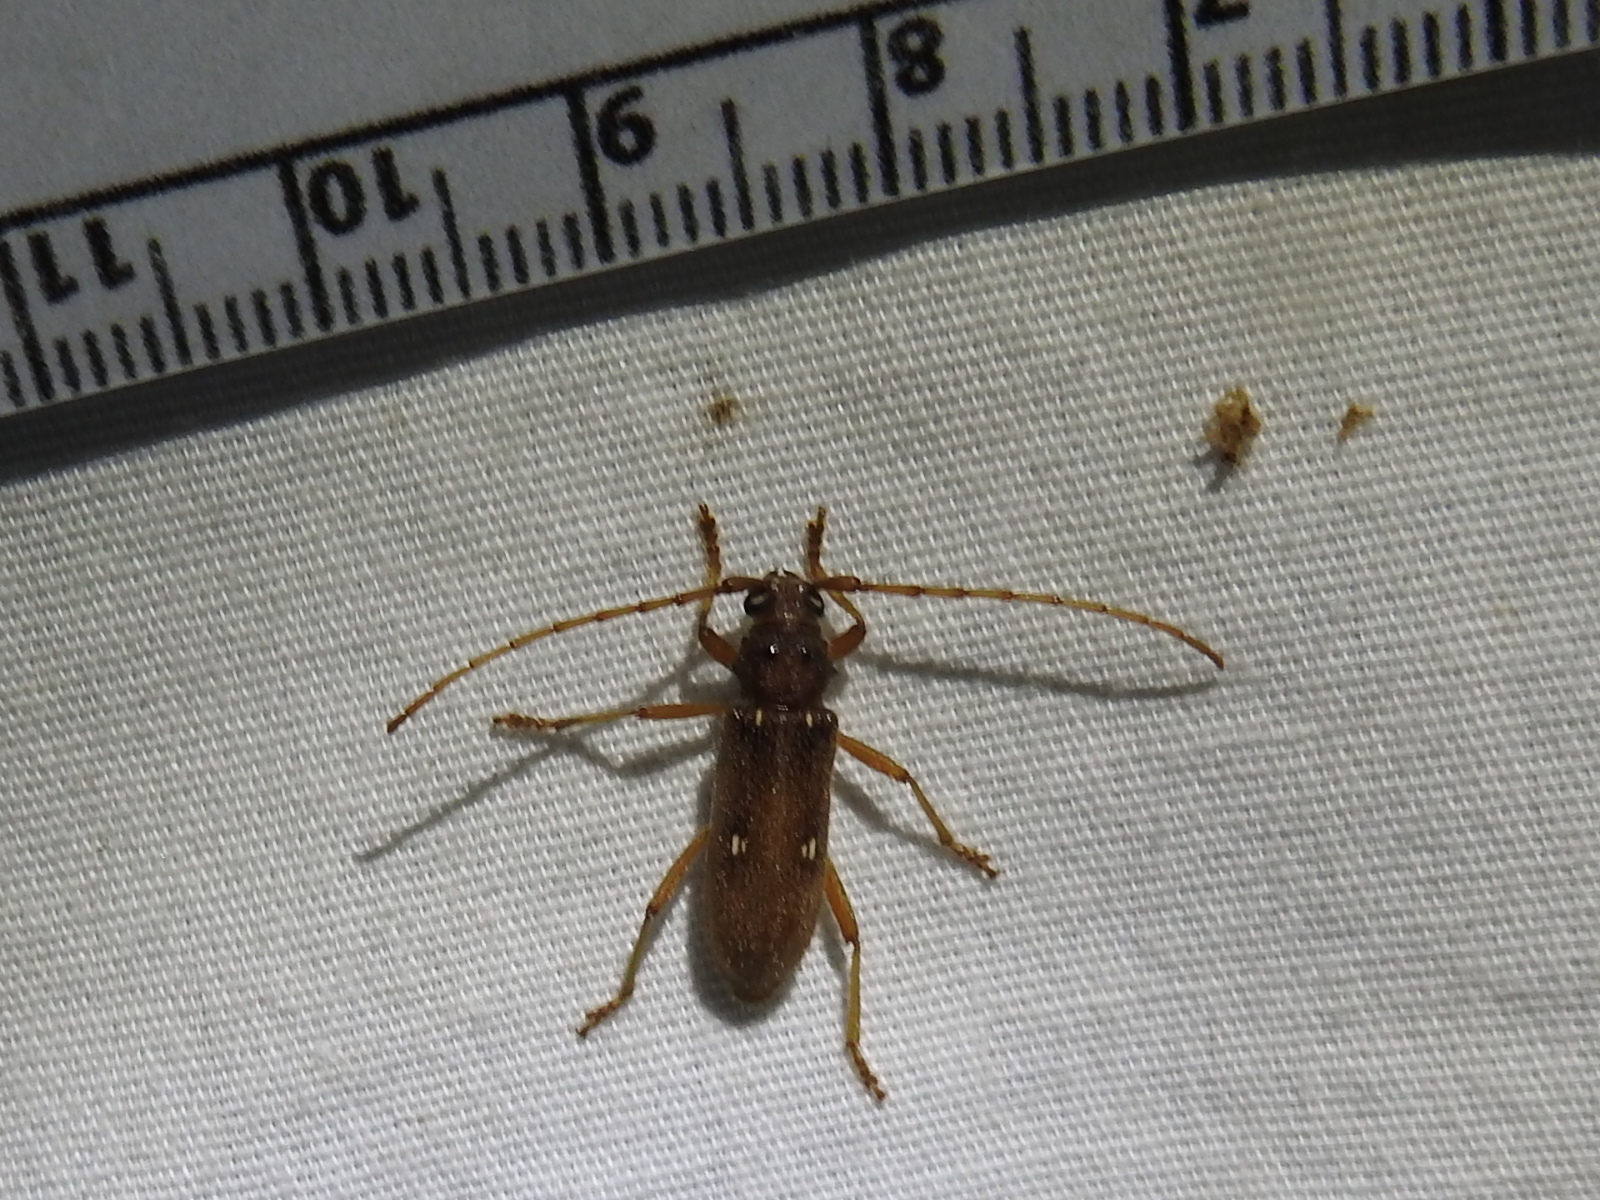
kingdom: Animalia
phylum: Arthropoda
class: Insecta
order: Coleoptera
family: Cerambycidae
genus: Eburia
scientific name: Eburia haldemani
